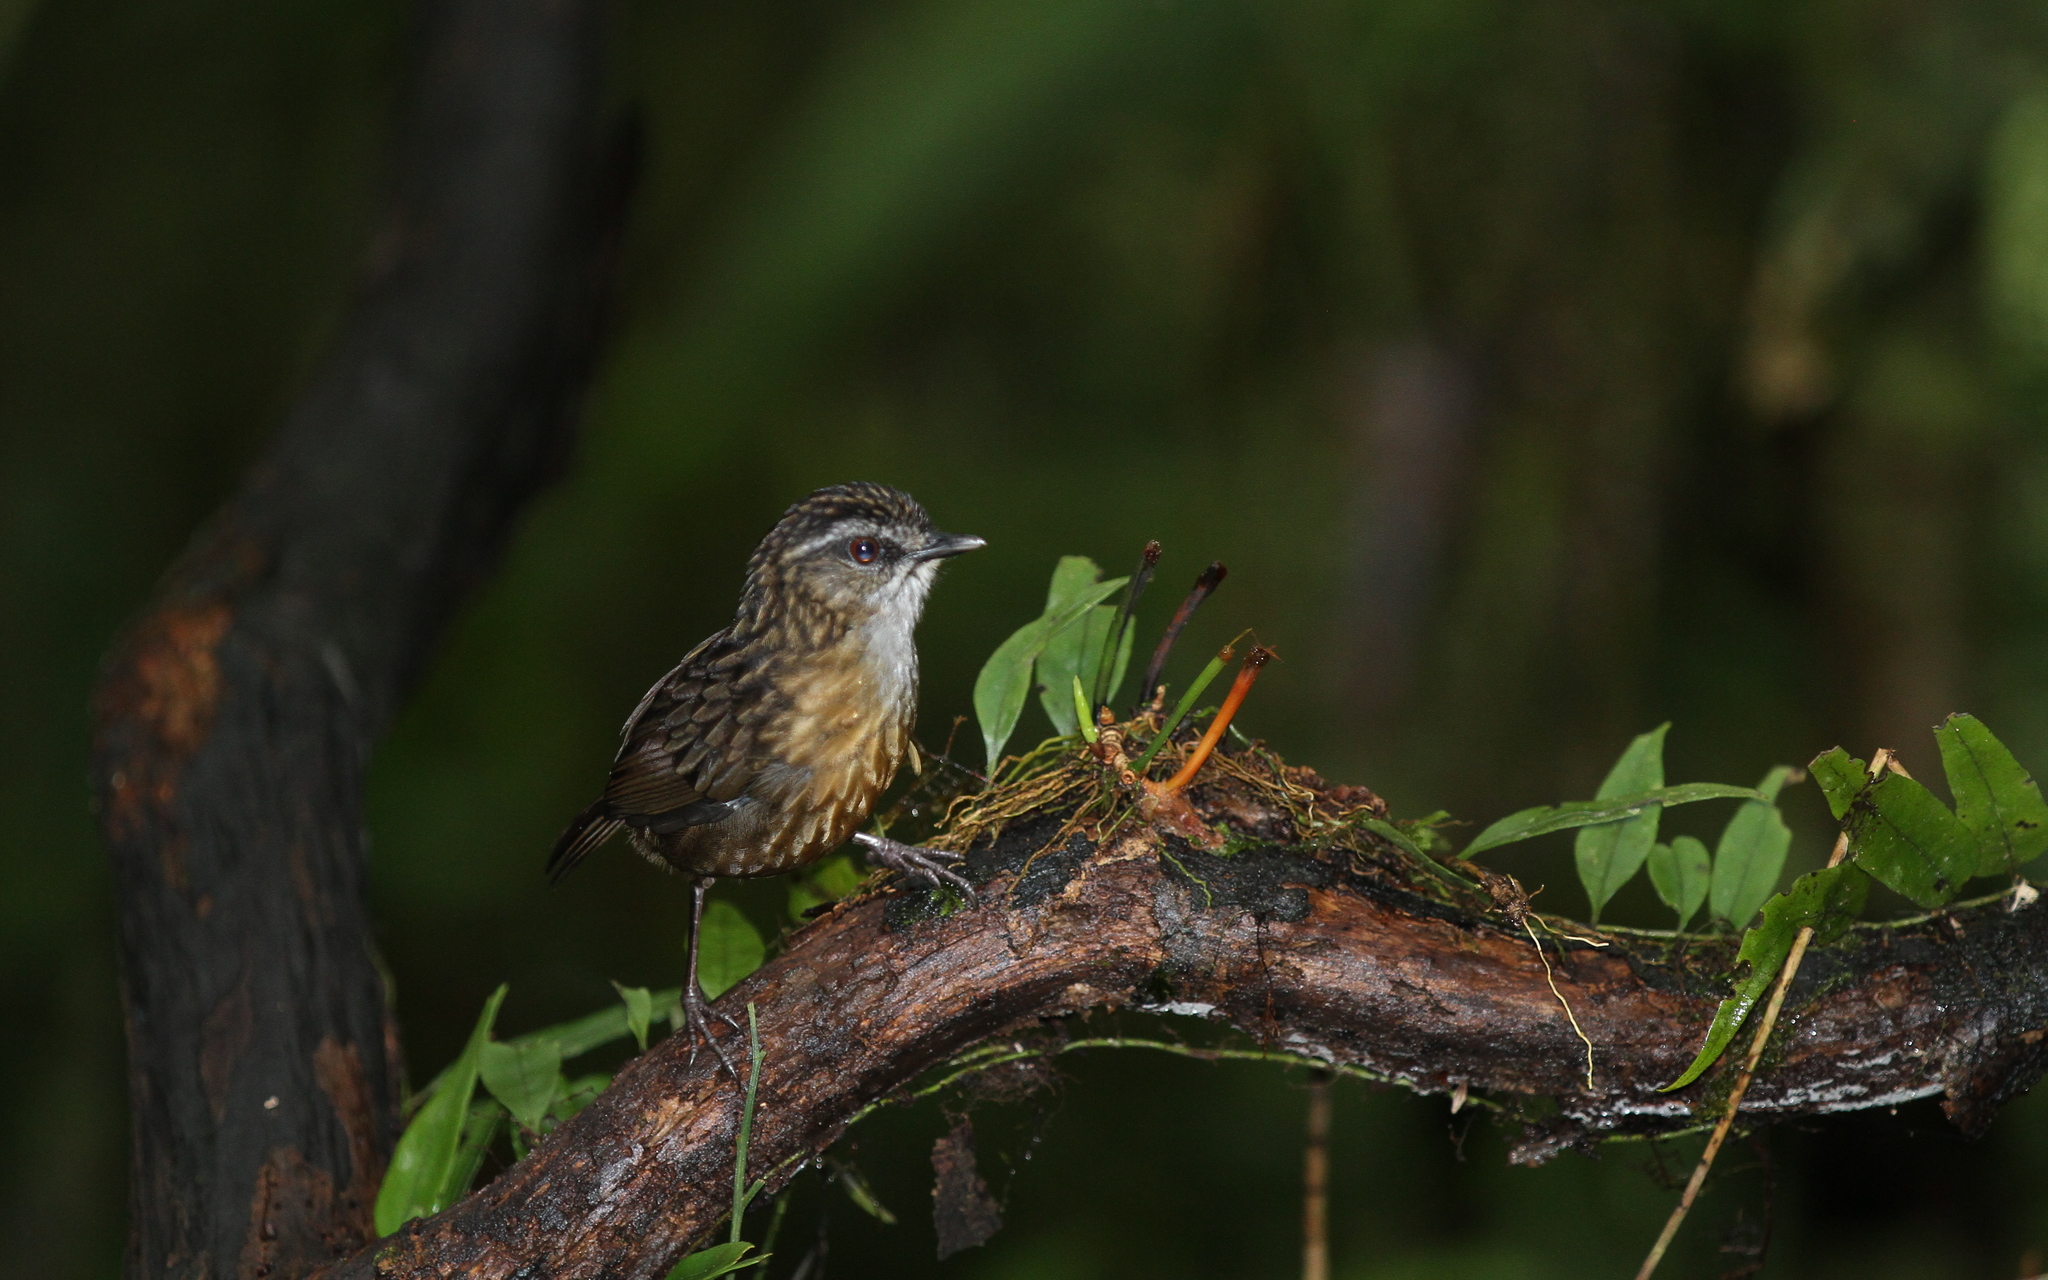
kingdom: Animalia
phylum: Chordata
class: Aves
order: Passeriformes
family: Pellorneidae
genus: Napothera
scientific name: Napothera crassa
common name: Mountain wren-babbler
